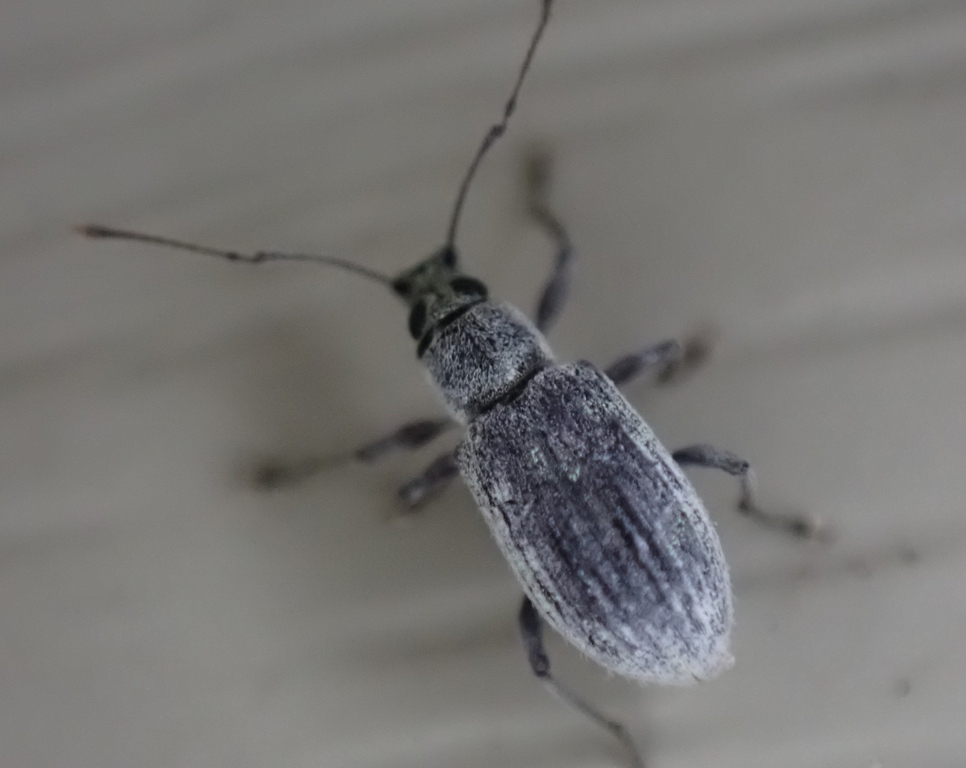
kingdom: Animalia
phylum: Arthropoda
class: Insecta
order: Coleoptera
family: Curculionidae
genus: Cyrtepistomus
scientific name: Cyrtepistomus castaneus
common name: Weevil
